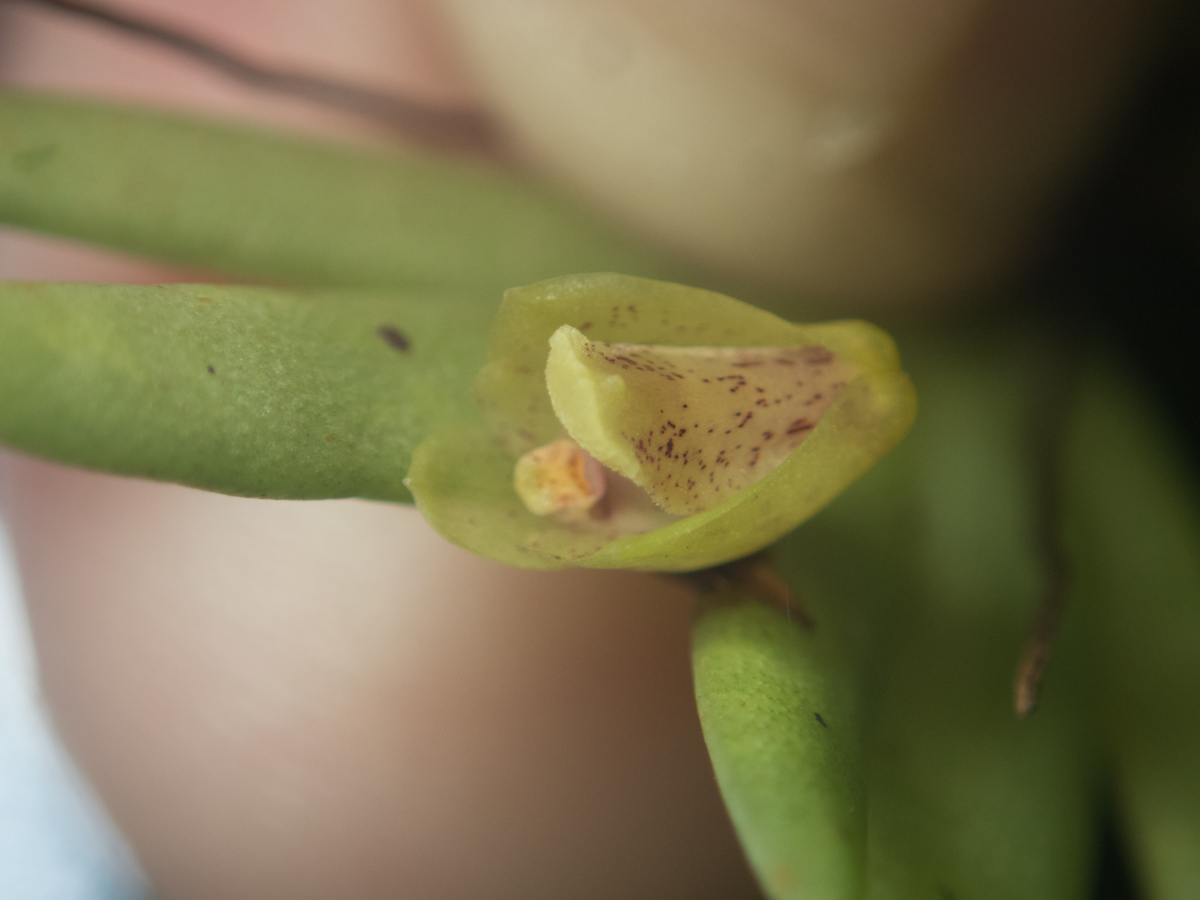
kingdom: Plantae
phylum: Tracheophyta
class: Liliopsida
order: Asparagales
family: Orchidaceae
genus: Oxystophyllum
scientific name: Oxystophyllum carnosum
